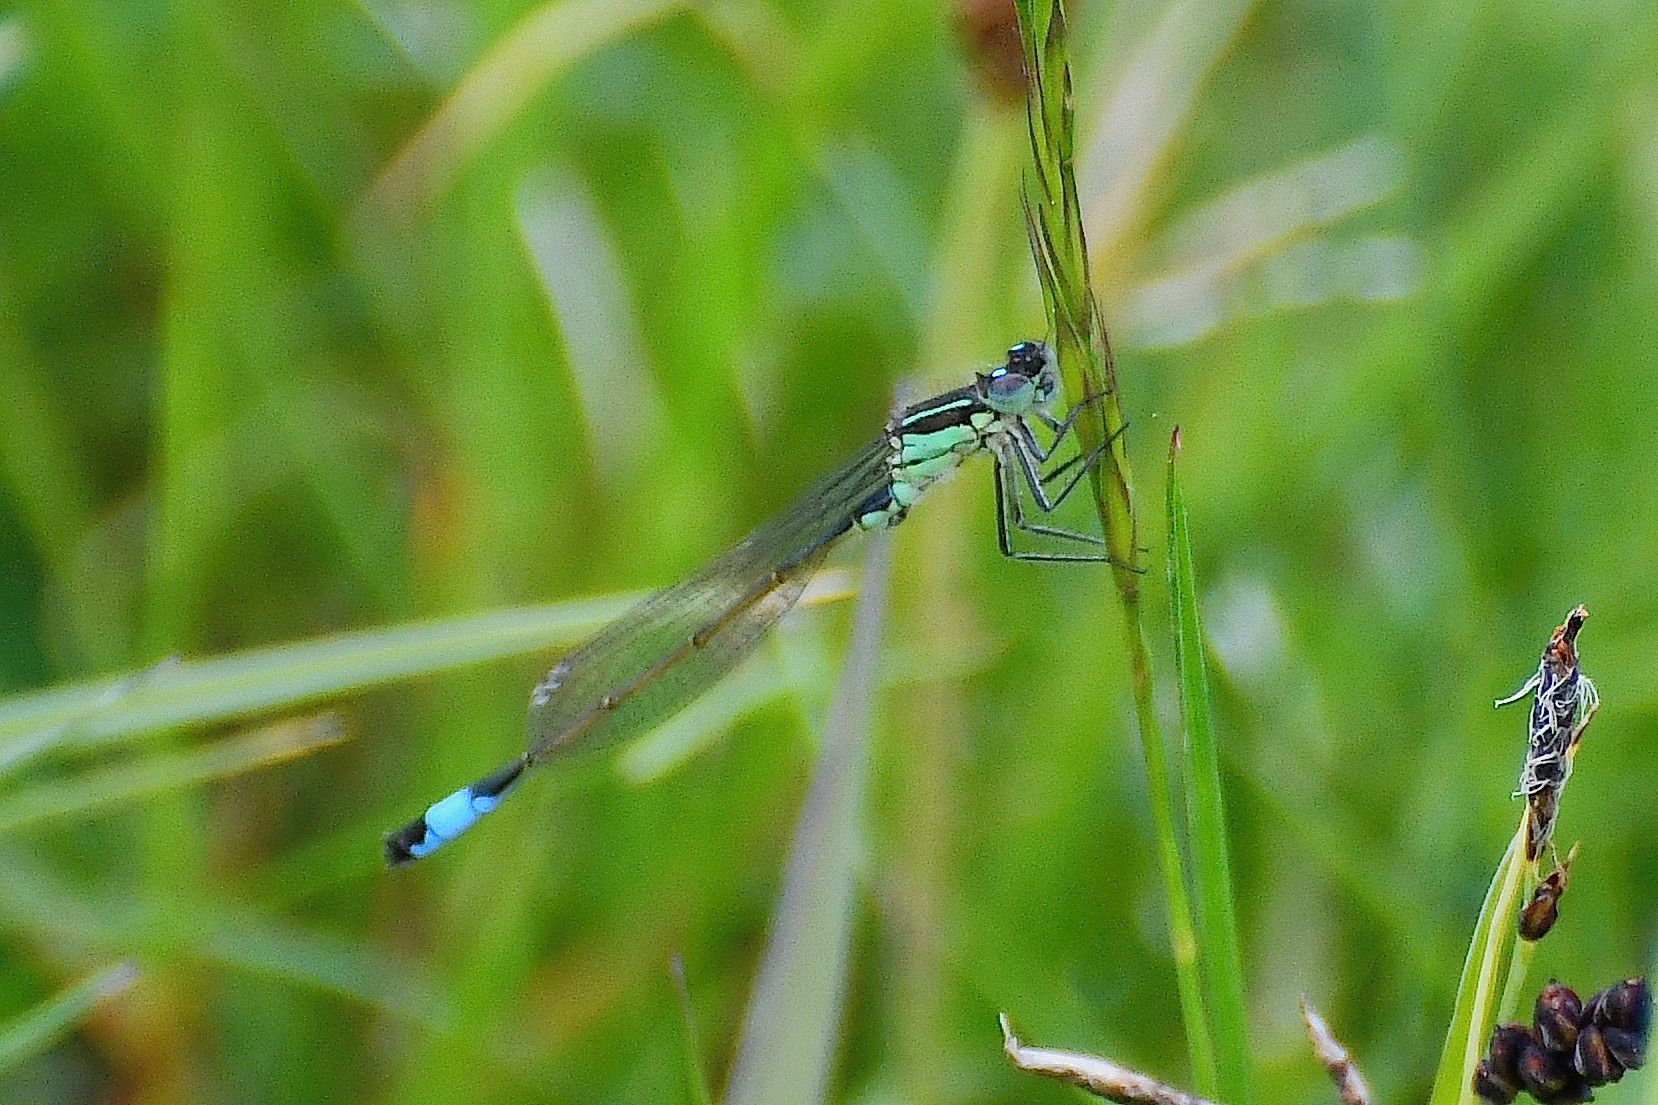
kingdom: Animalia
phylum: Arthropoda
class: Insecta
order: Odonata
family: Coenagrionidae
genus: Ischnura
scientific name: Ischnura elegans
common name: Blue-tailed damselfly
